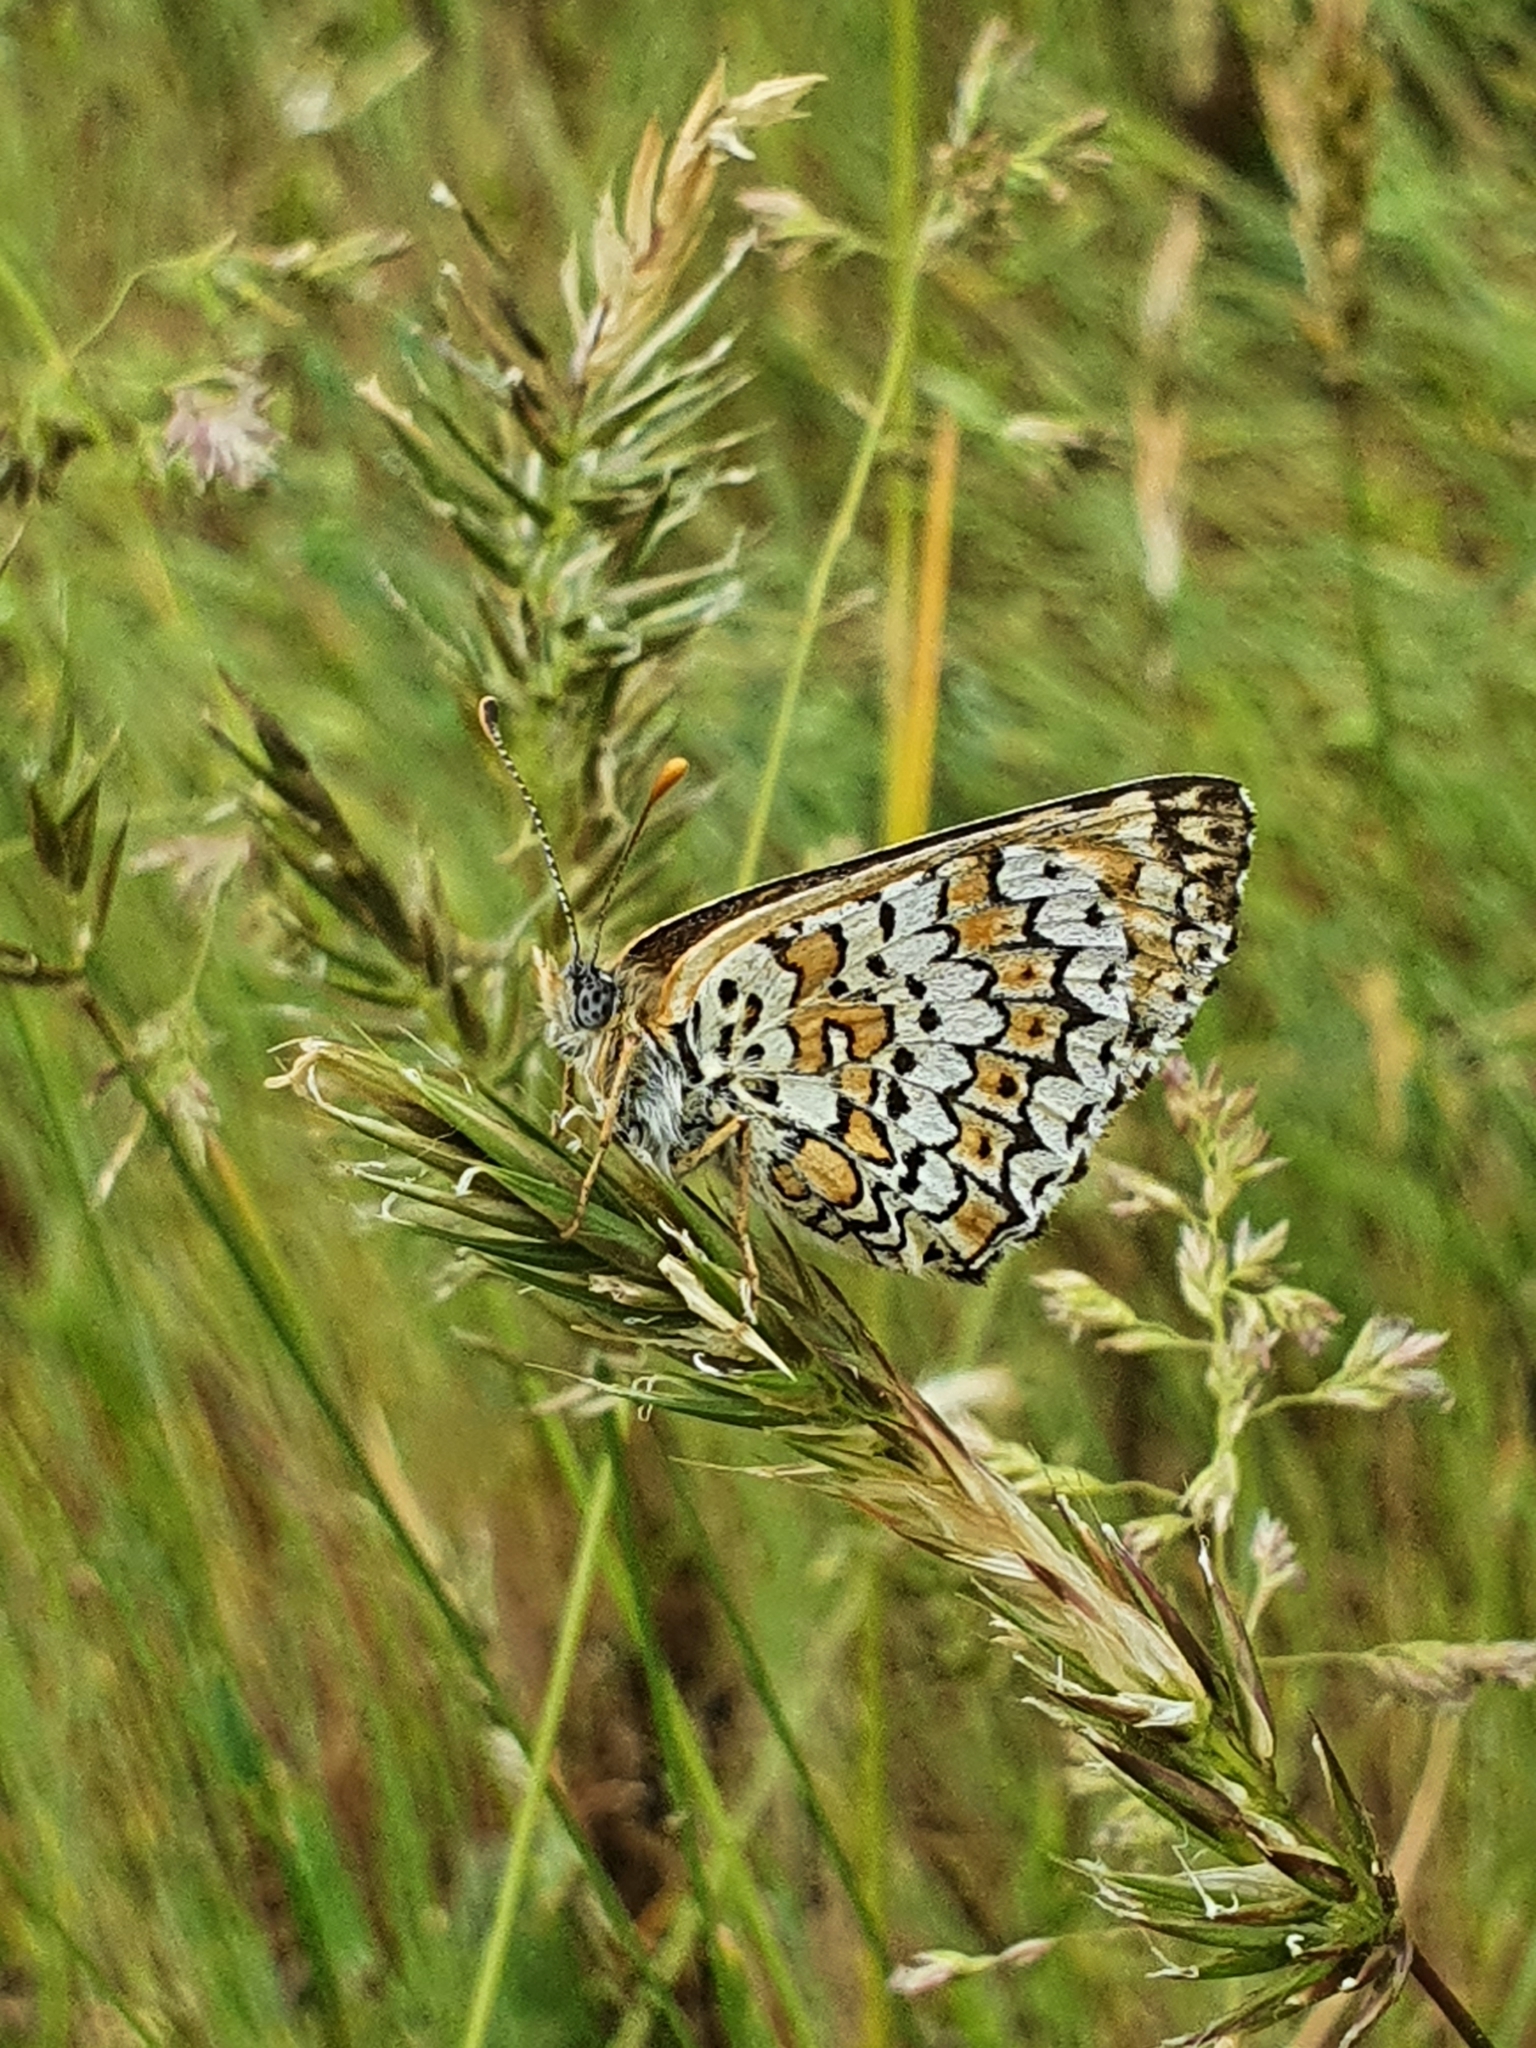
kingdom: Animalia
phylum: Arthropoda
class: Insecta
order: Lepidoptera
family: Nymphalidae
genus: Melitaea
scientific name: Melitaea cinxia
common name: Glanville fritillary
